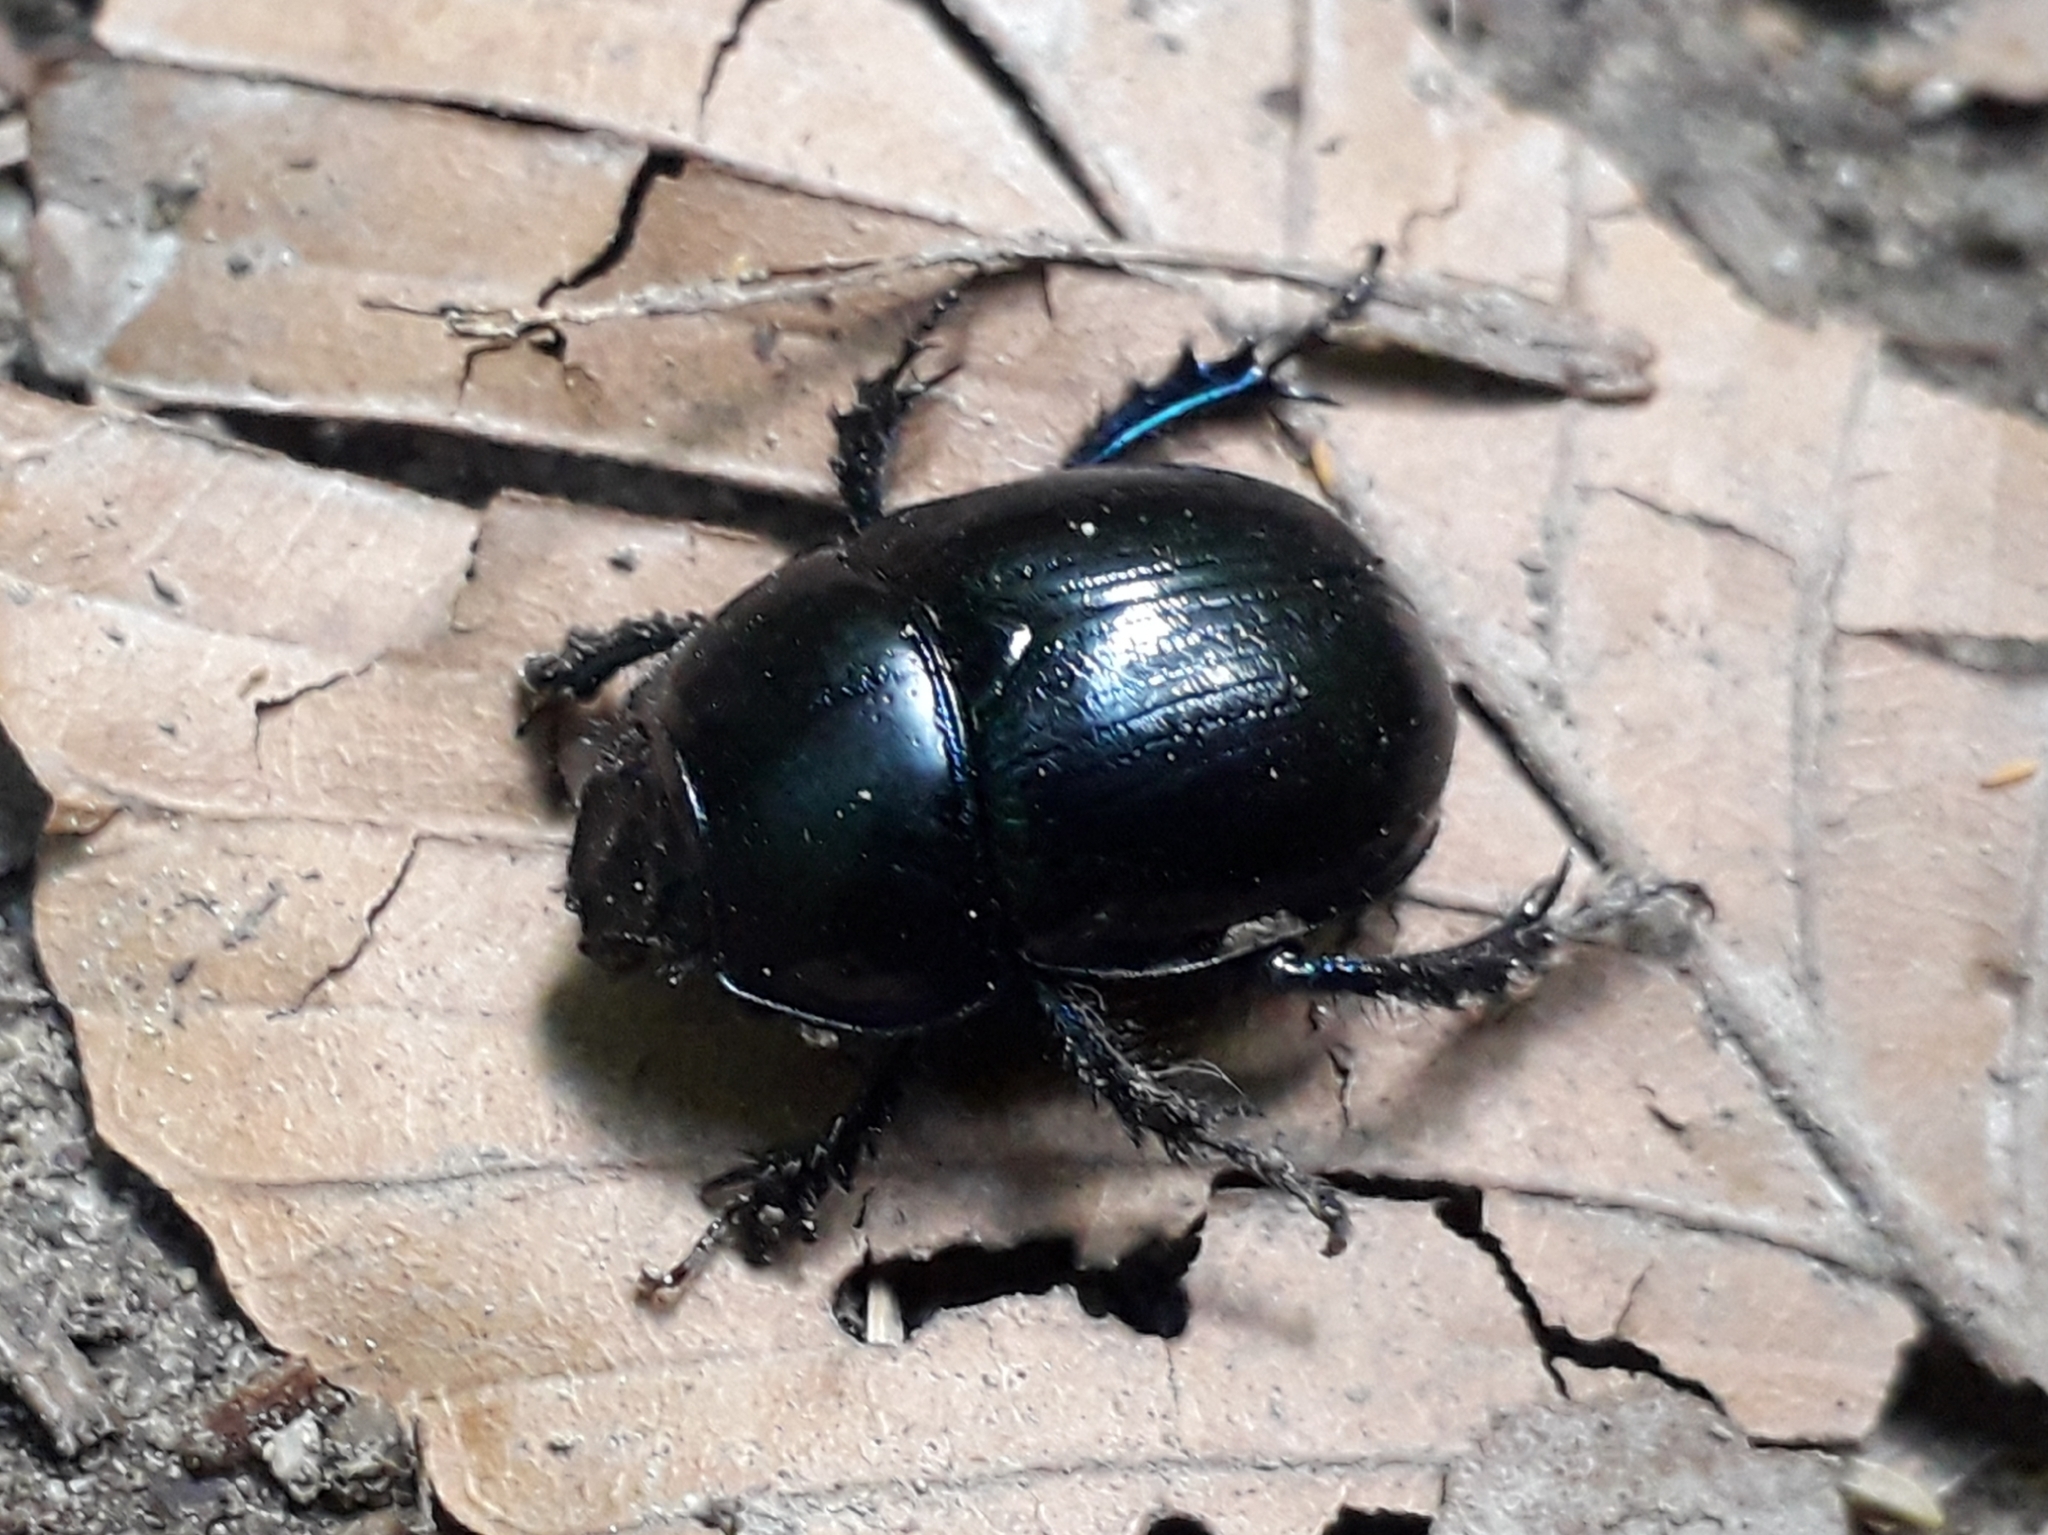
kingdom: Animalia
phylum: Arthropoda
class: Insecta
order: Coleoptera
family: Geotrupidae
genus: Anoplotrupes
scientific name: Anoplotrupes stercorosus
